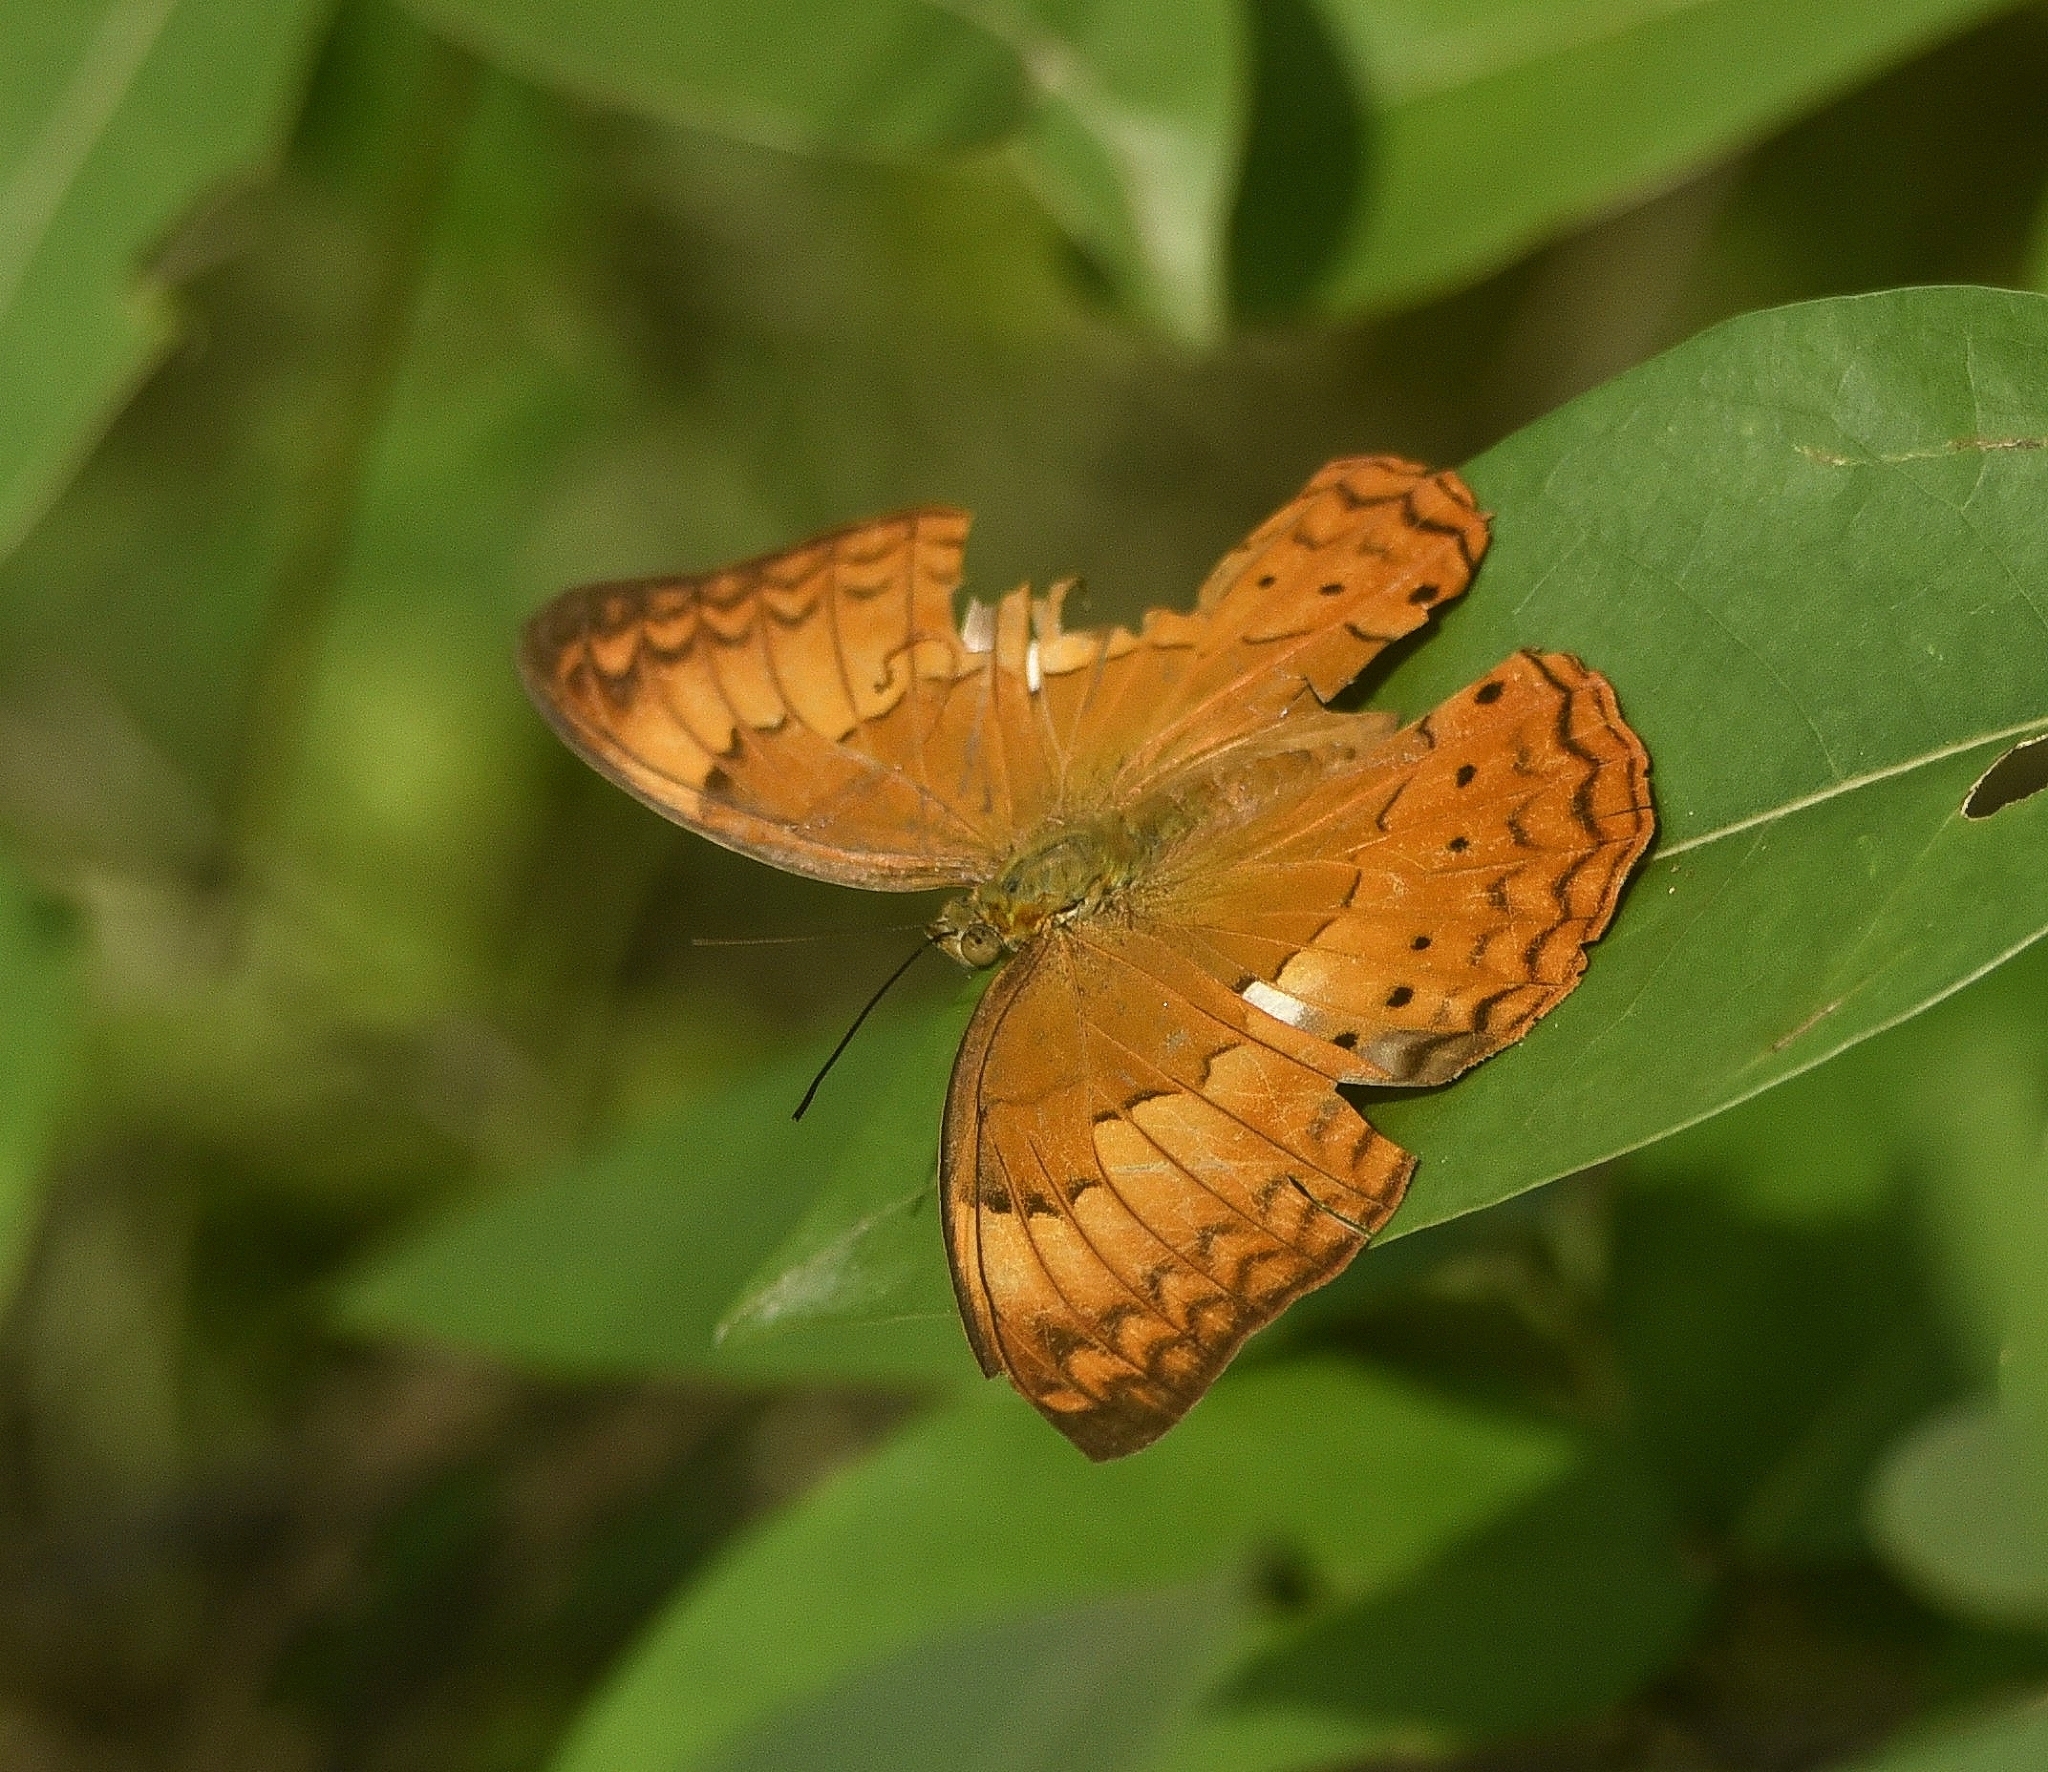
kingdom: Animalia
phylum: Arthropoda
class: Insecta
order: Lepidoptera
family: Nymphalidae
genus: Cirrochroa
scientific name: Cirrochroa thais
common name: Tamil yeoman
